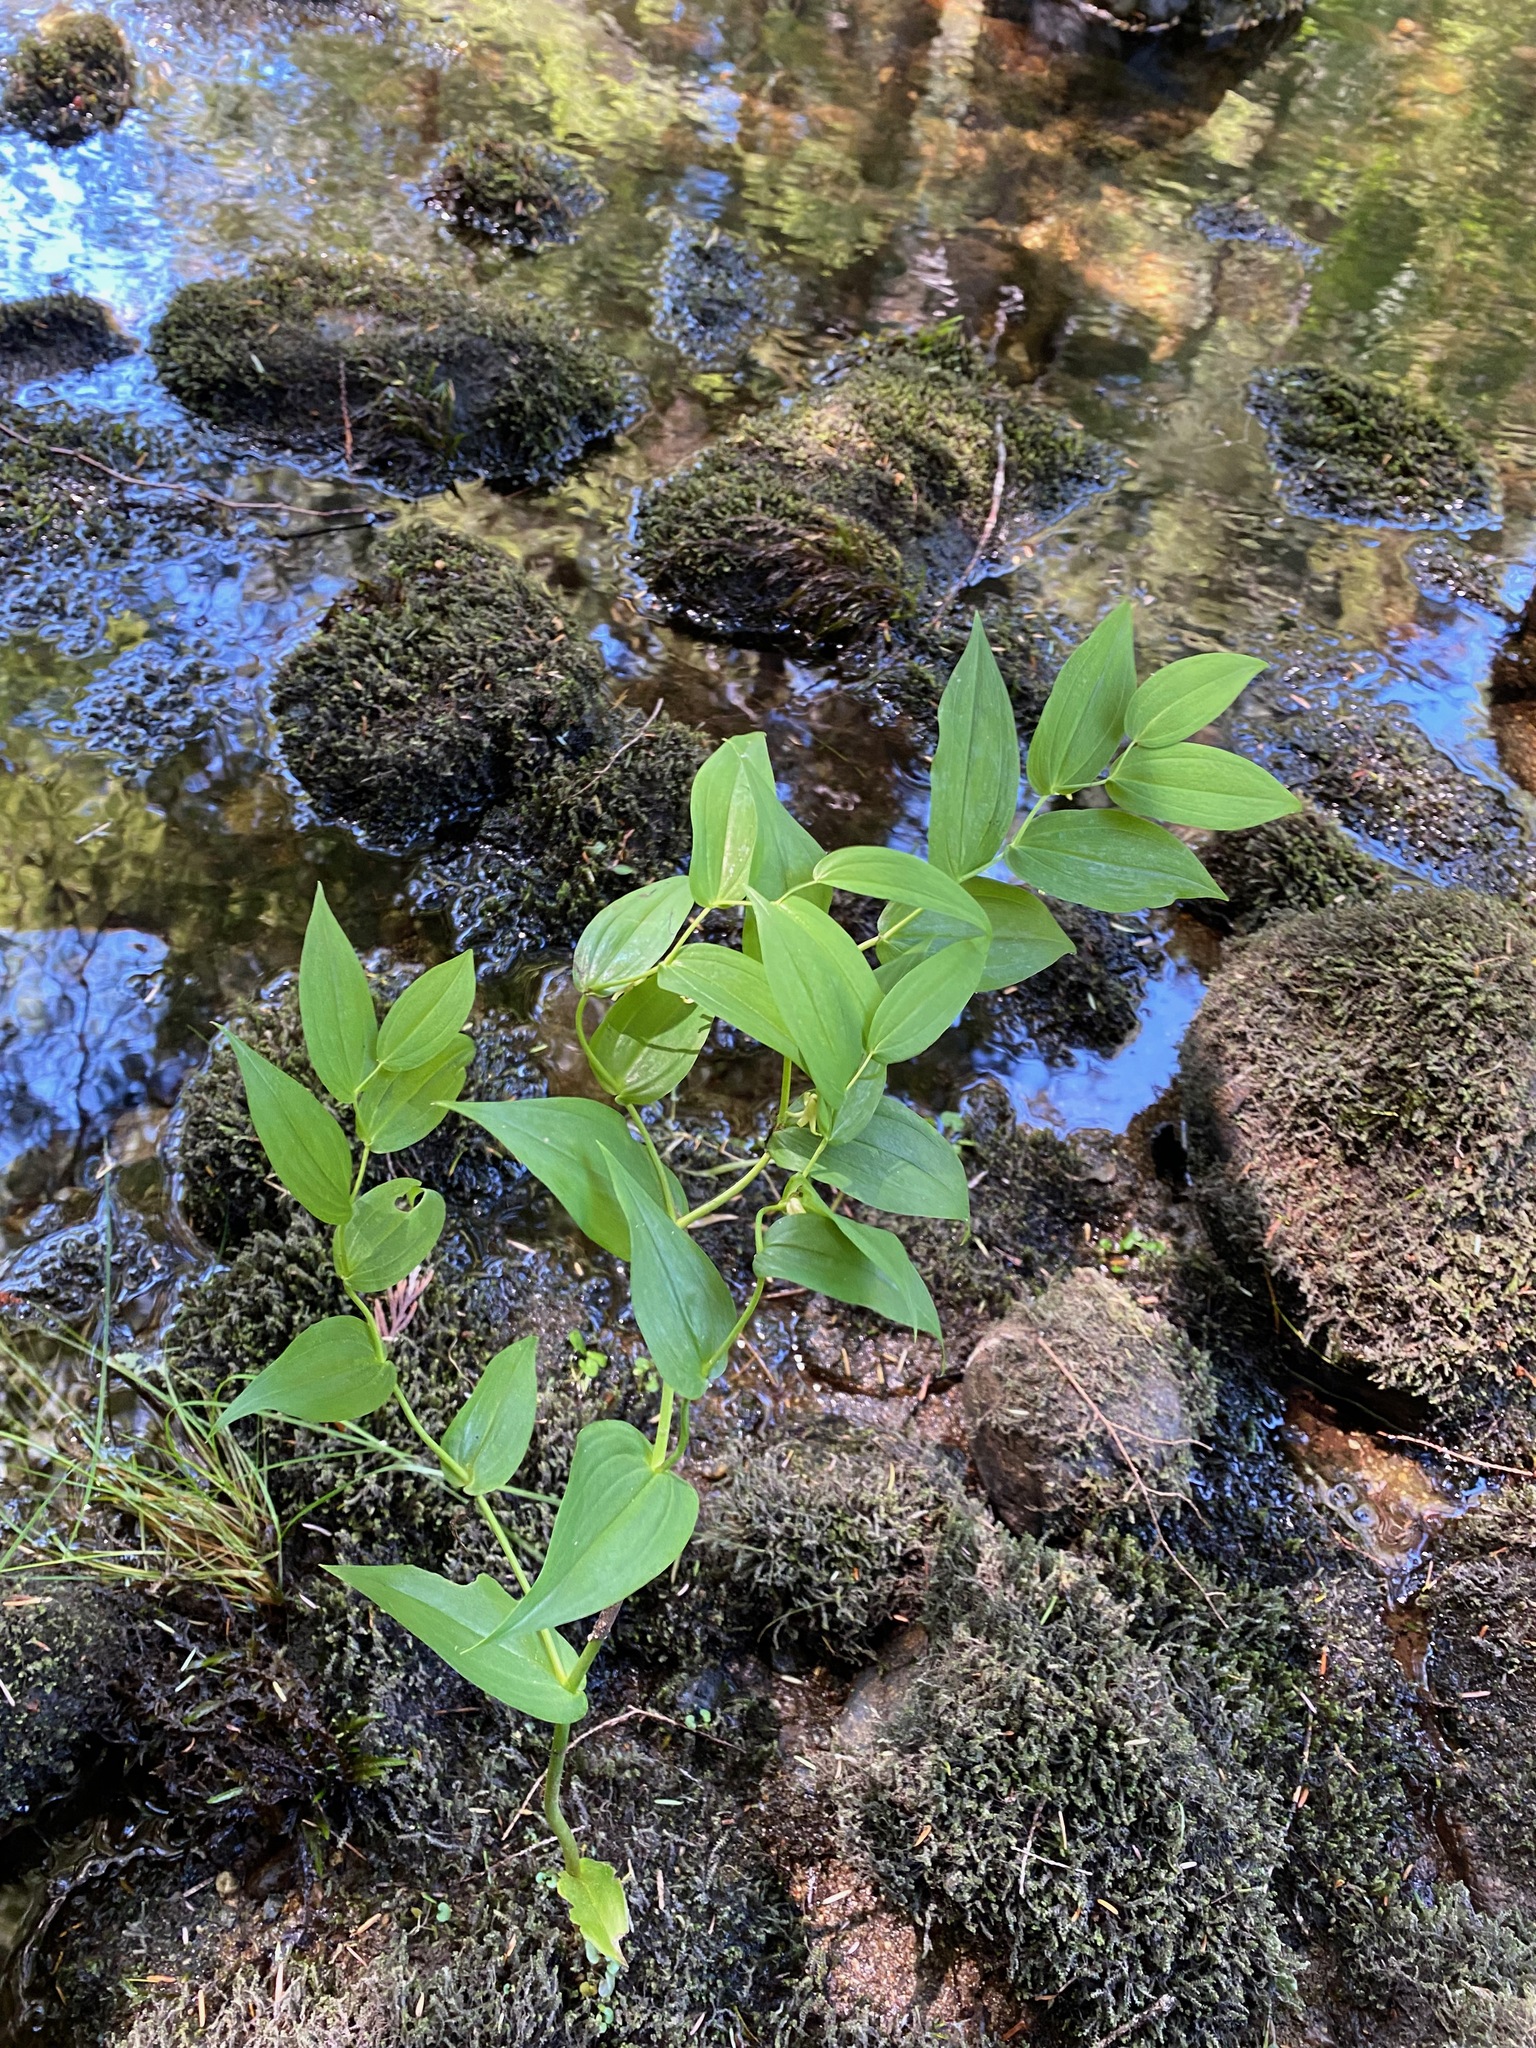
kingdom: Plantae
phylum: Tracheophyta
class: Liliopsida
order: Liliales
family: Liliaceae
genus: Streptopus
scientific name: Streptopus amplexifolius
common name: Clasp twisted stalk
